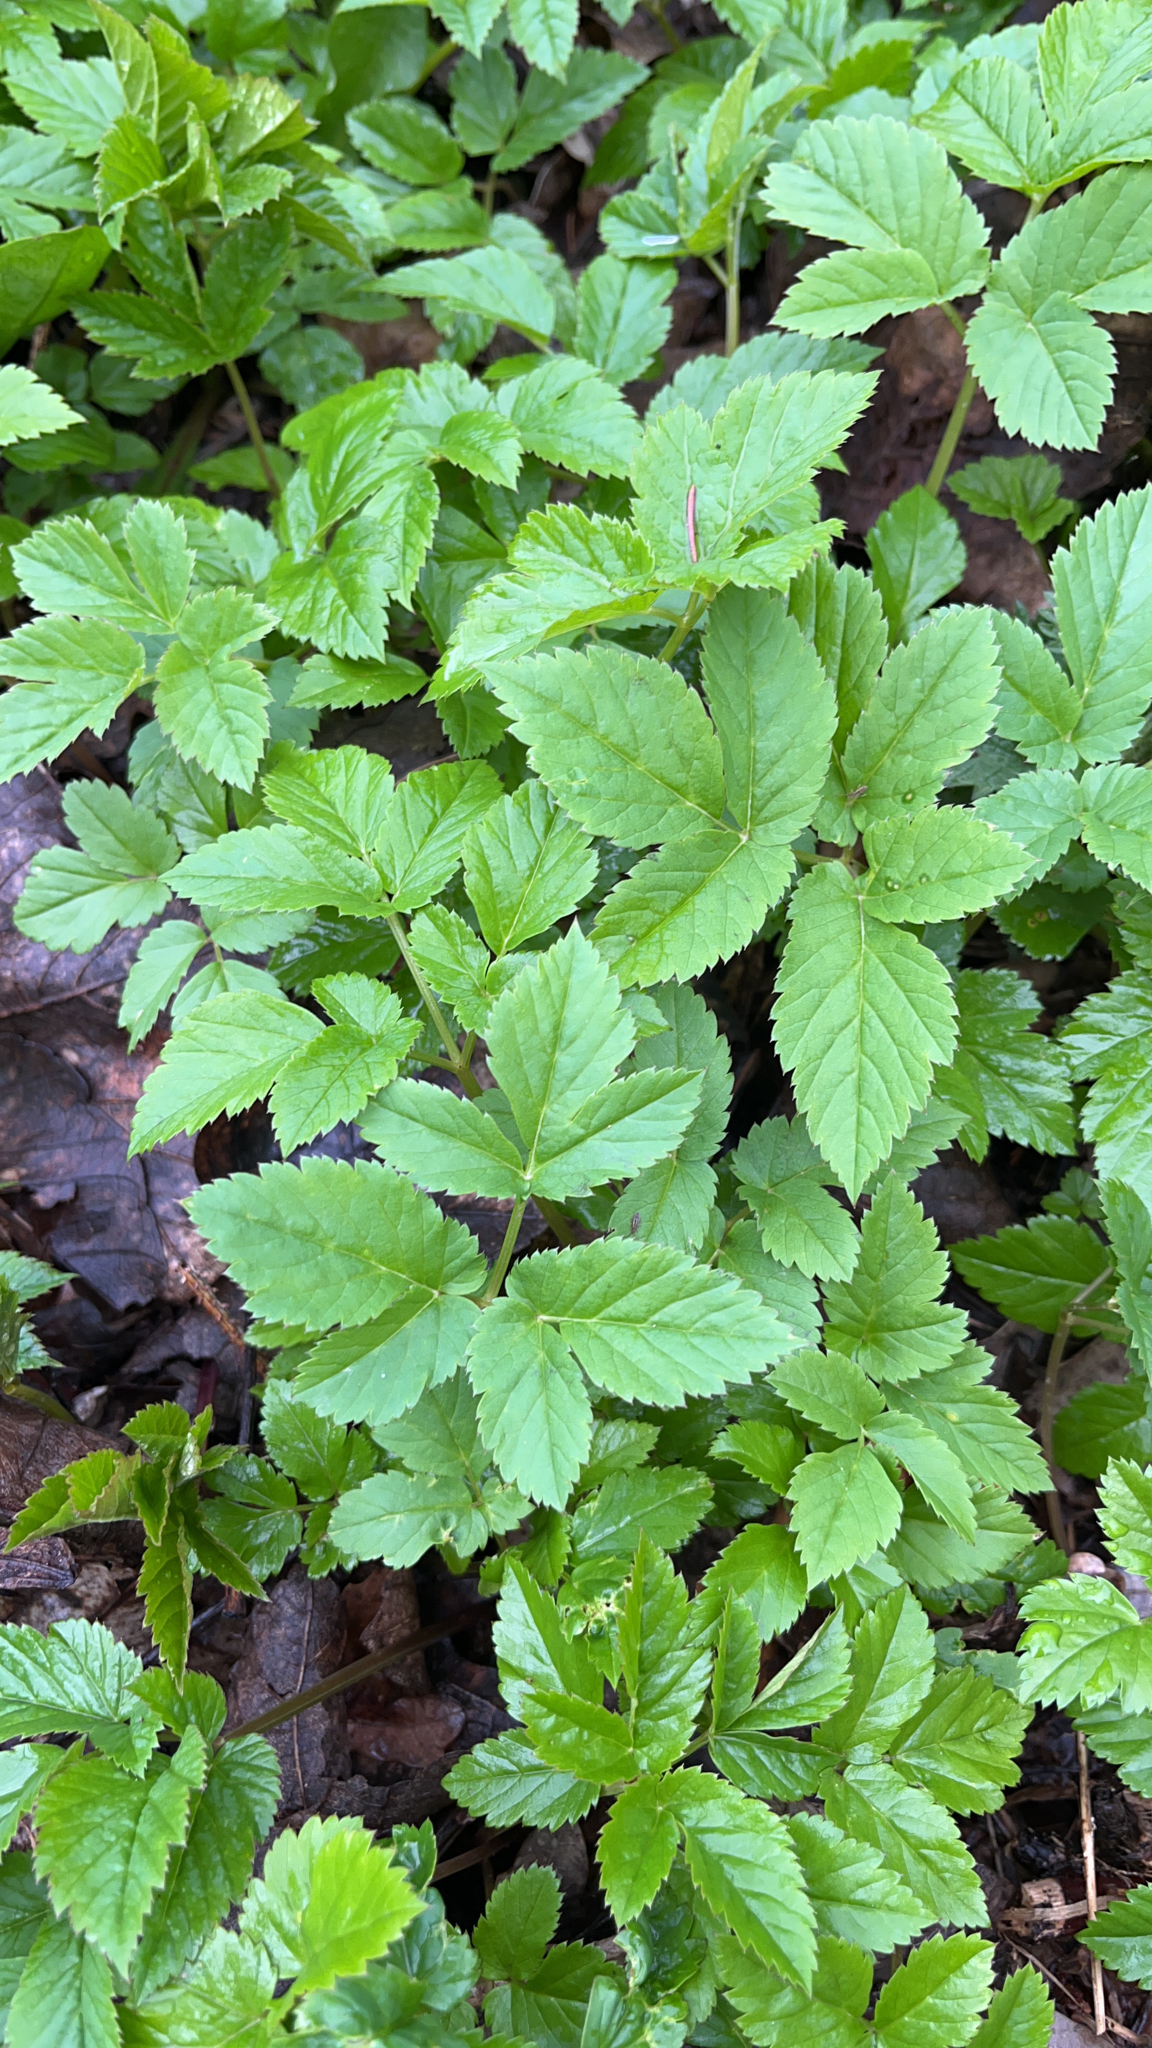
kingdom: Plantae
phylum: Tracheophyta
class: Magnoliopsida
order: Apiales
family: Apiaceae
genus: Aegopodium
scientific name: Aegopodium podagraria
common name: Ground-elder
